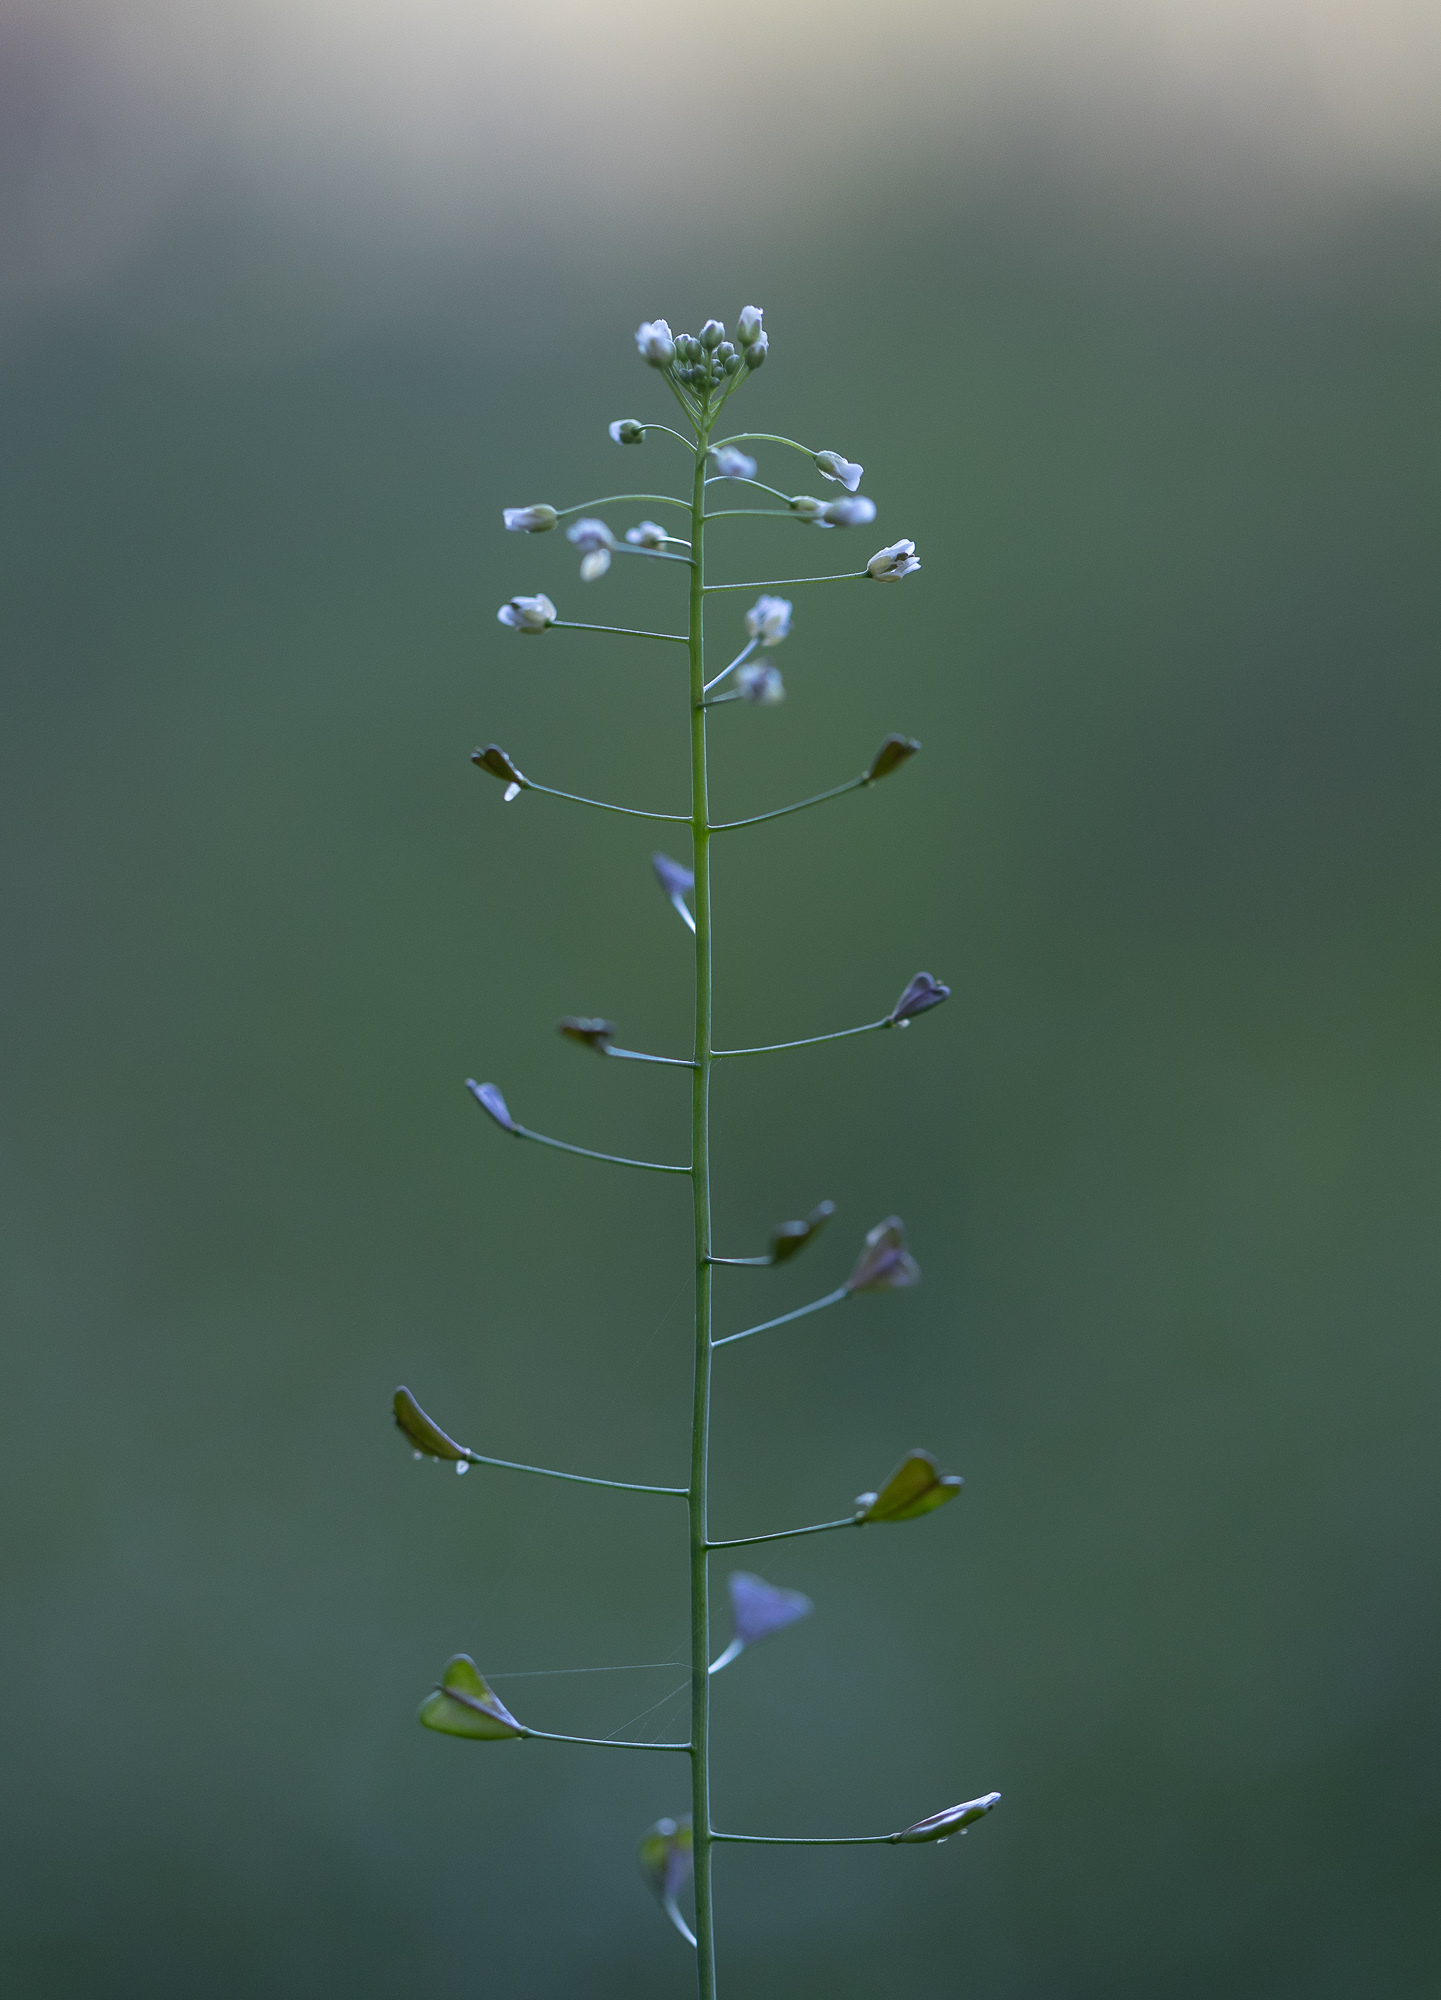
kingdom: Plantae
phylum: Tracheophyta
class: Magnoliopsida
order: Brassicales
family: Brassicaceae
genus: Capsella
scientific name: Capsella bursa-pastoris
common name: Shepherd's purse
